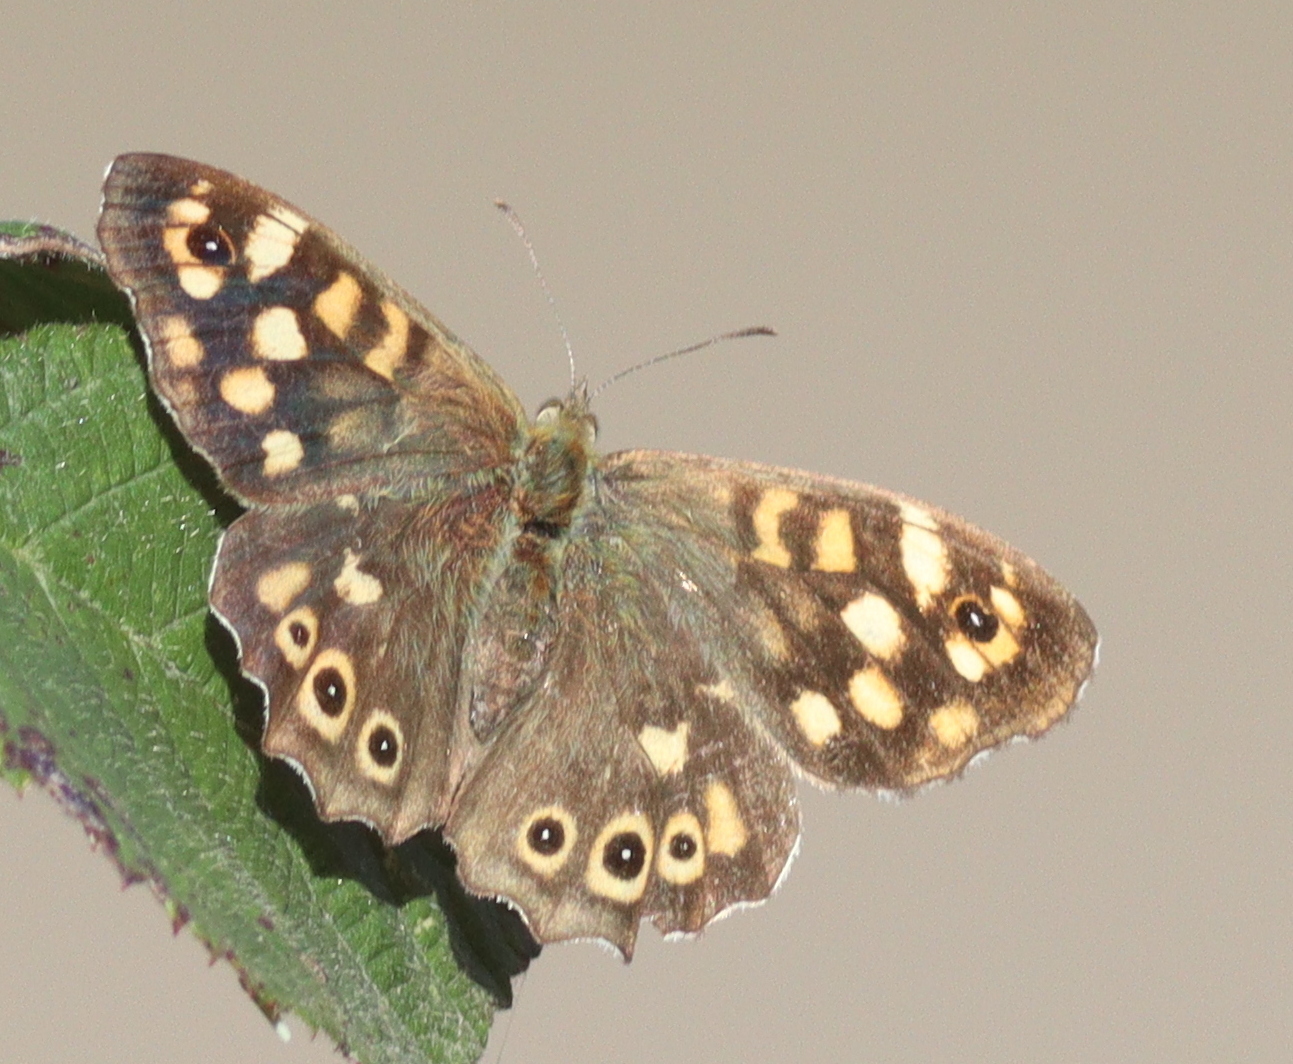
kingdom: Animalia
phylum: Arthropoda
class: Insecta
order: Lepidoptera
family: Nymphalidae
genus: Pararge
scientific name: Pararge aegeria
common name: Speckled wood
